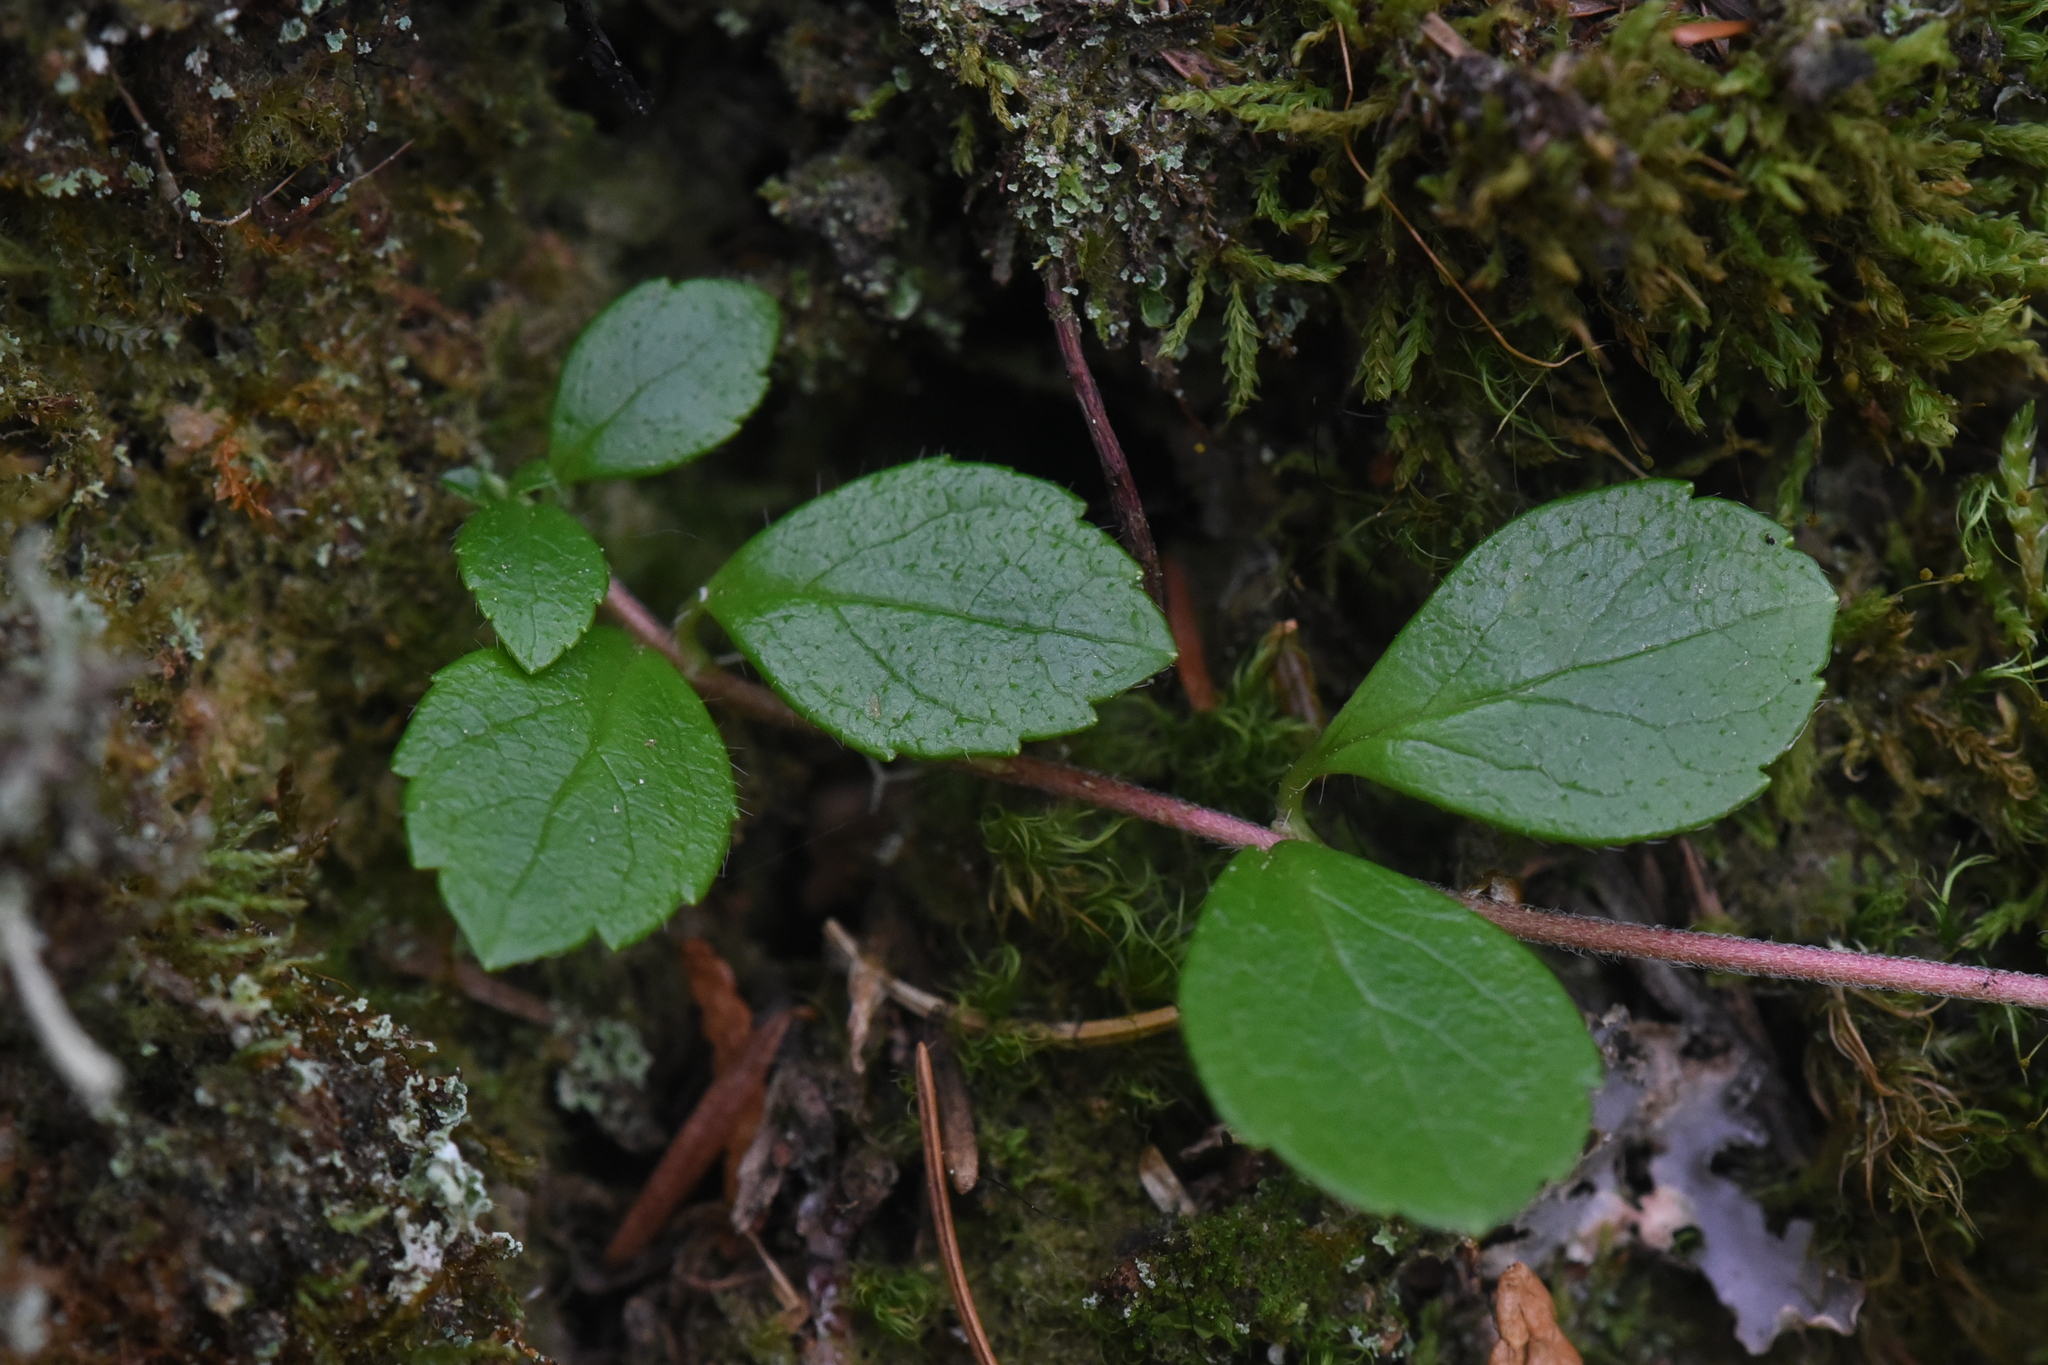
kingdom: Plantae
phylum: Tracheophyta
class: Magnoliopsida
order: Dipsacales
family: Caprifoliaceae
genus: Linnaea
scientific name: Linnaea borealis
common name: Twinflower
